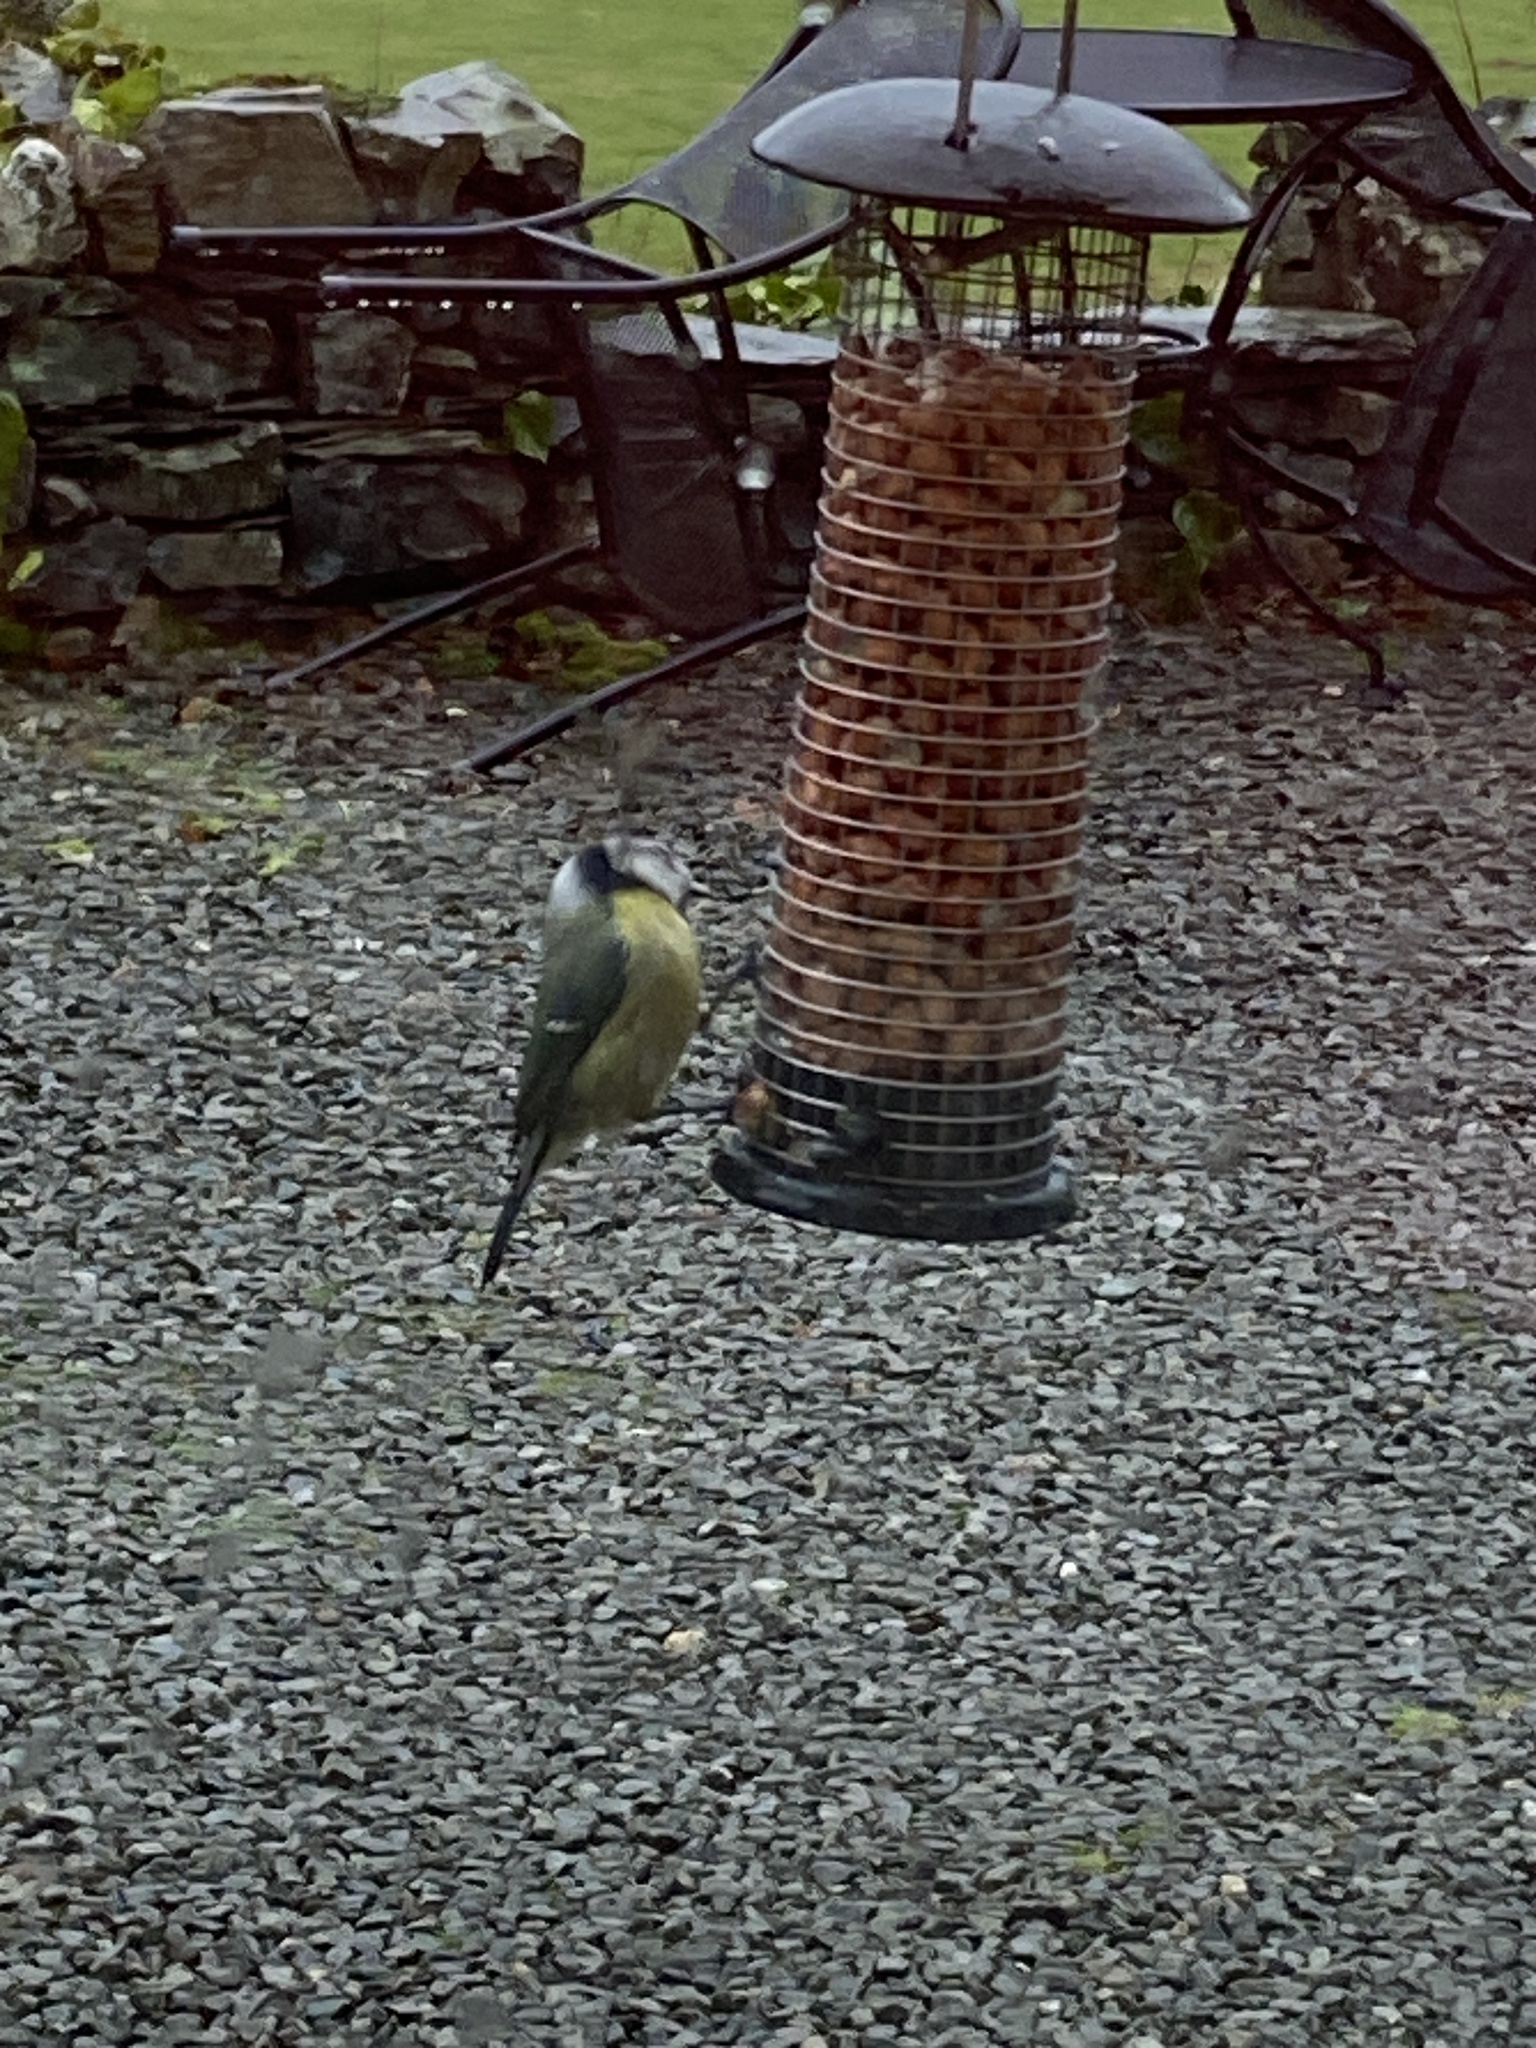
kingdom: Animalia
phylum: Chordata
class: Aves
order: Passeriformes
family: Paridae
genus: Cyanistes
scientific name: Cyanistes caeruleus
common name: Eurasian blue tit
